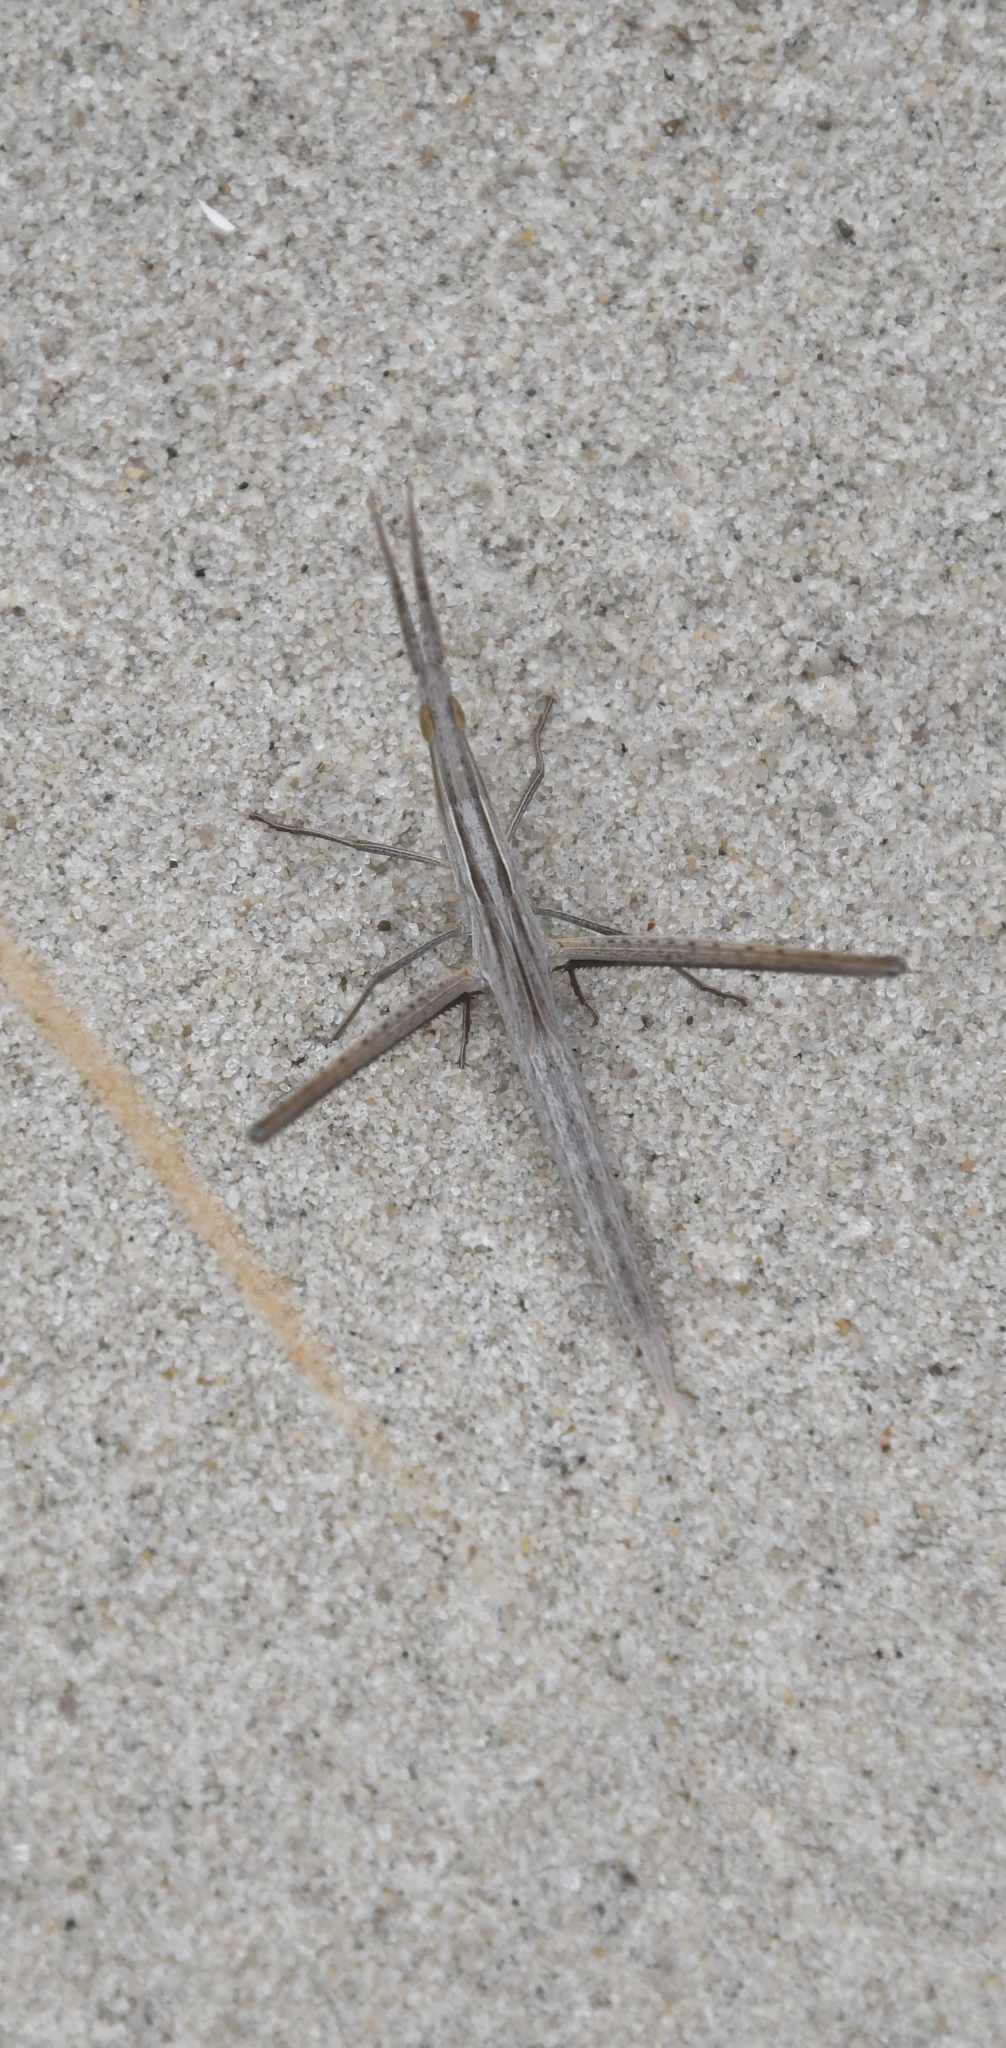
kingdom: Animalia
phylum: Arthropoda
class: Insecta
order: Orthoptera
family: Acrididae
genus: Acrida
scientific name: Acrida ungarica
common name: Common cone-headed grasshopper
